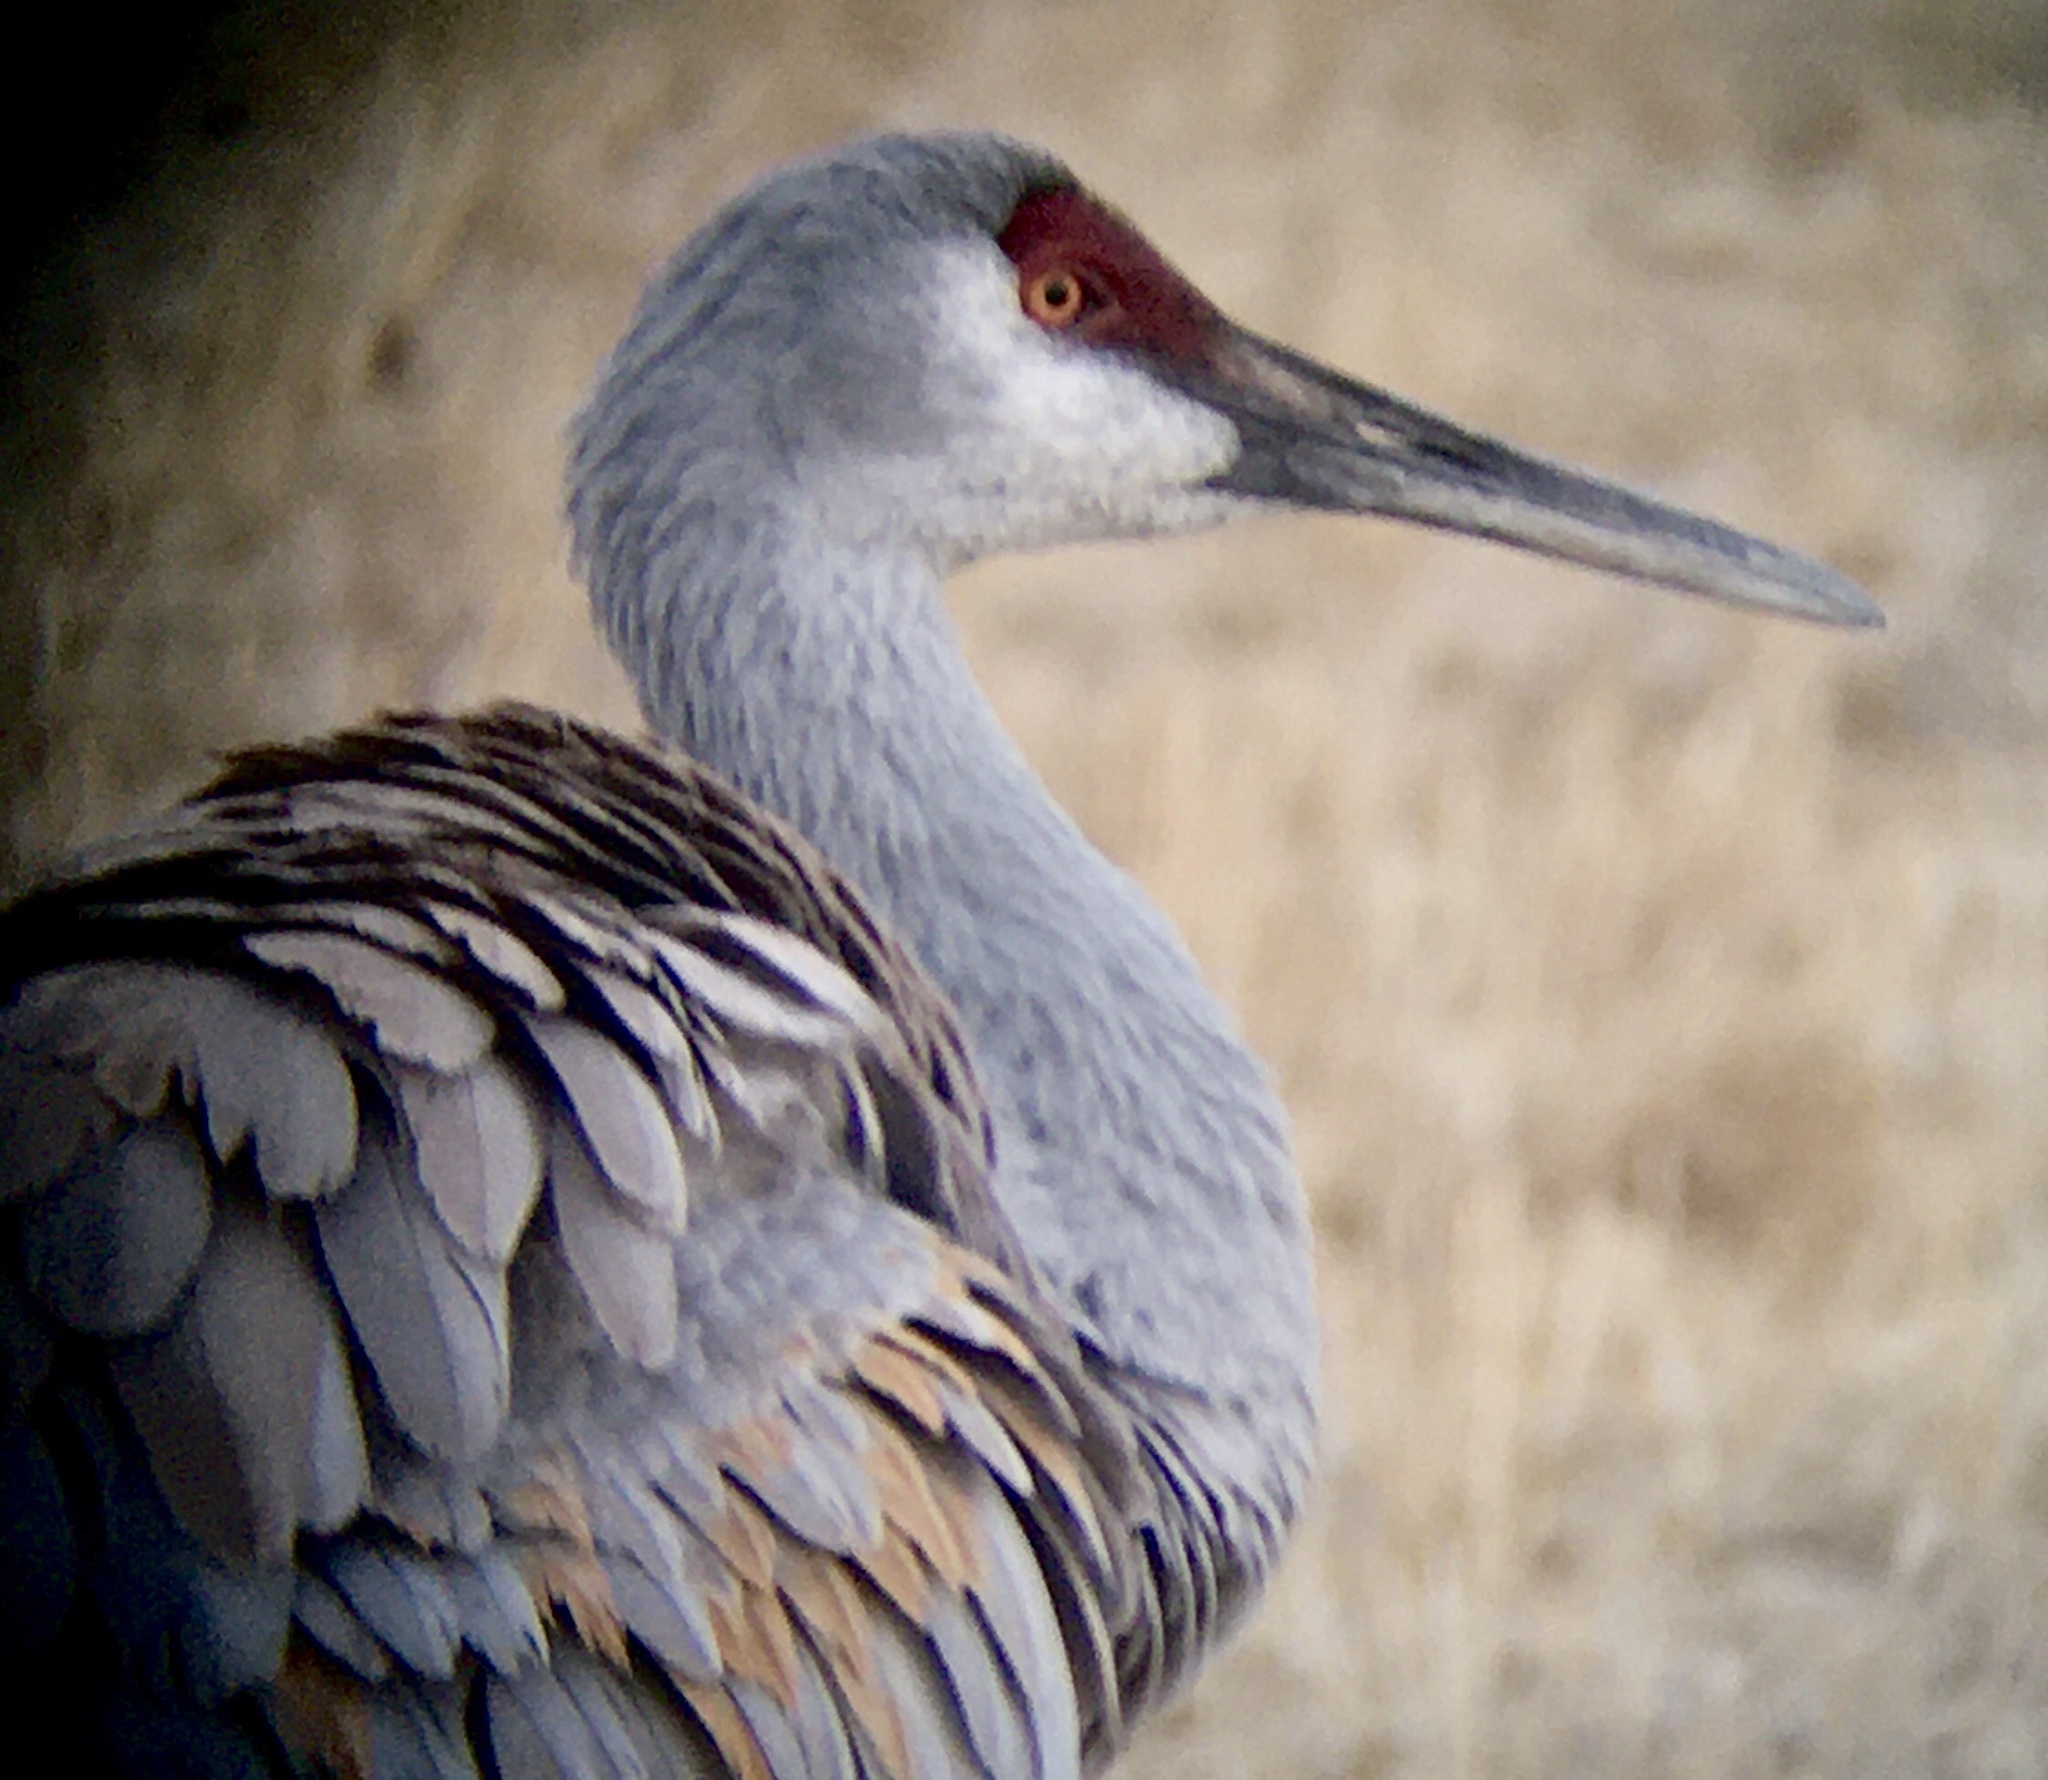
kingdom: Animalia
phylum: Chordata
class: Aves
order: Gruiformes
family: Gruidae
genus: Grus
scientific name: Grus canadensis
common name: Sandhill crane
